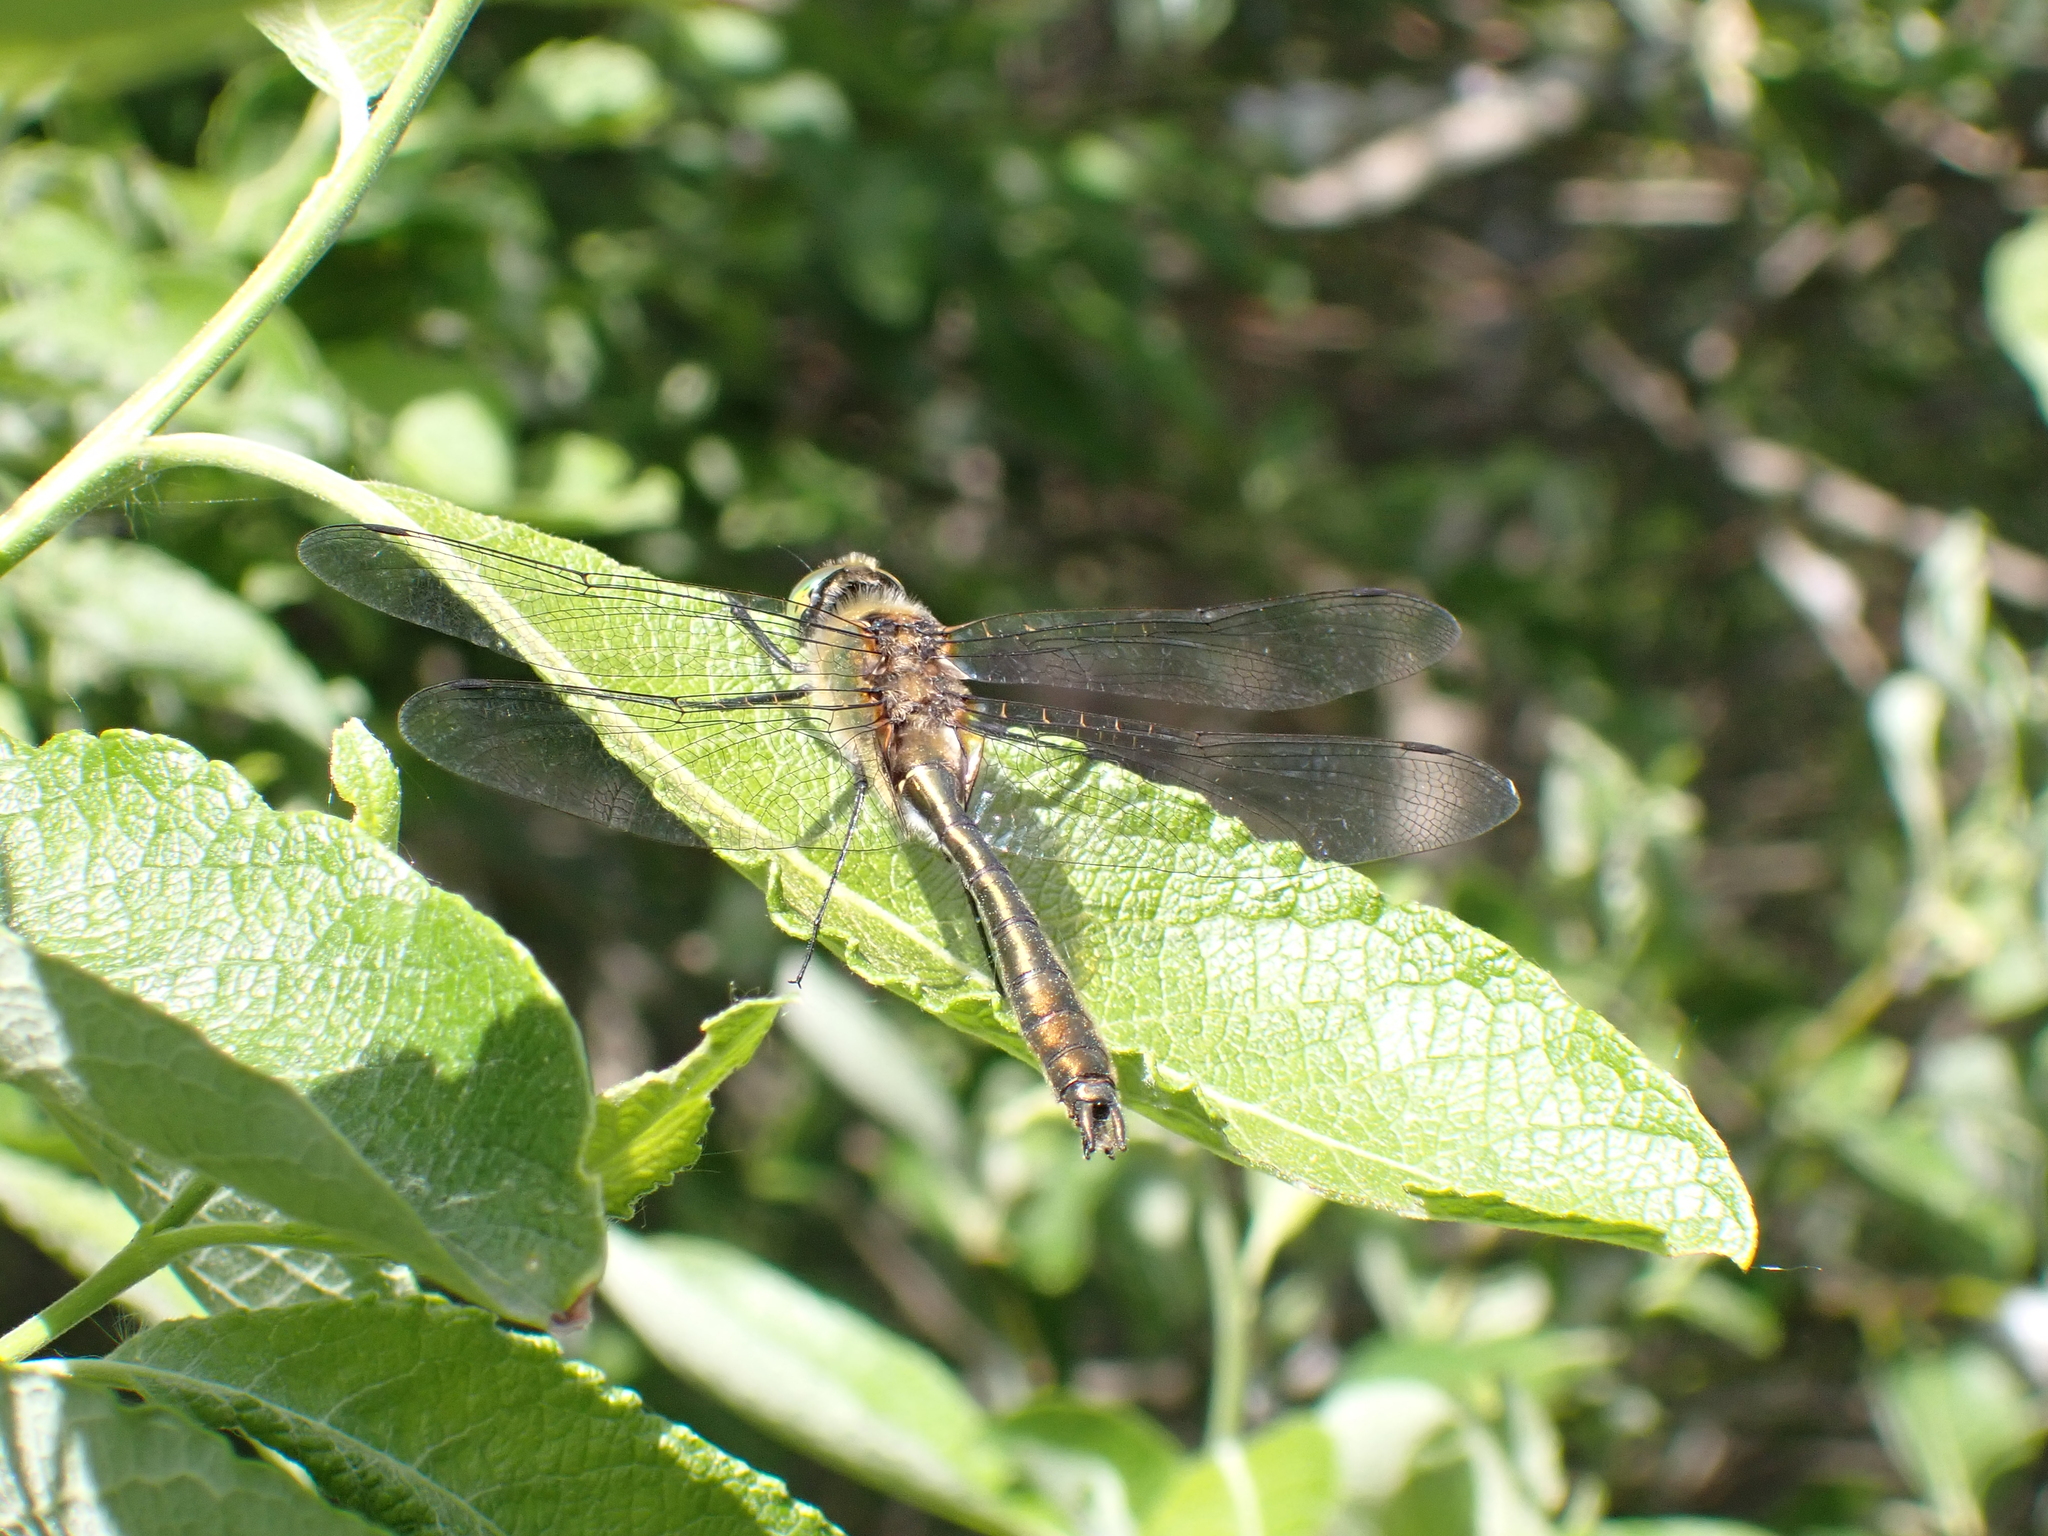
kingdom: Animalia
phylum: Arthropoda
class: Insecta
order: Odonata
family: Corduliidae
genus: Cordulia
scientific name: Cordulia aenea
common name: Downy emerald
